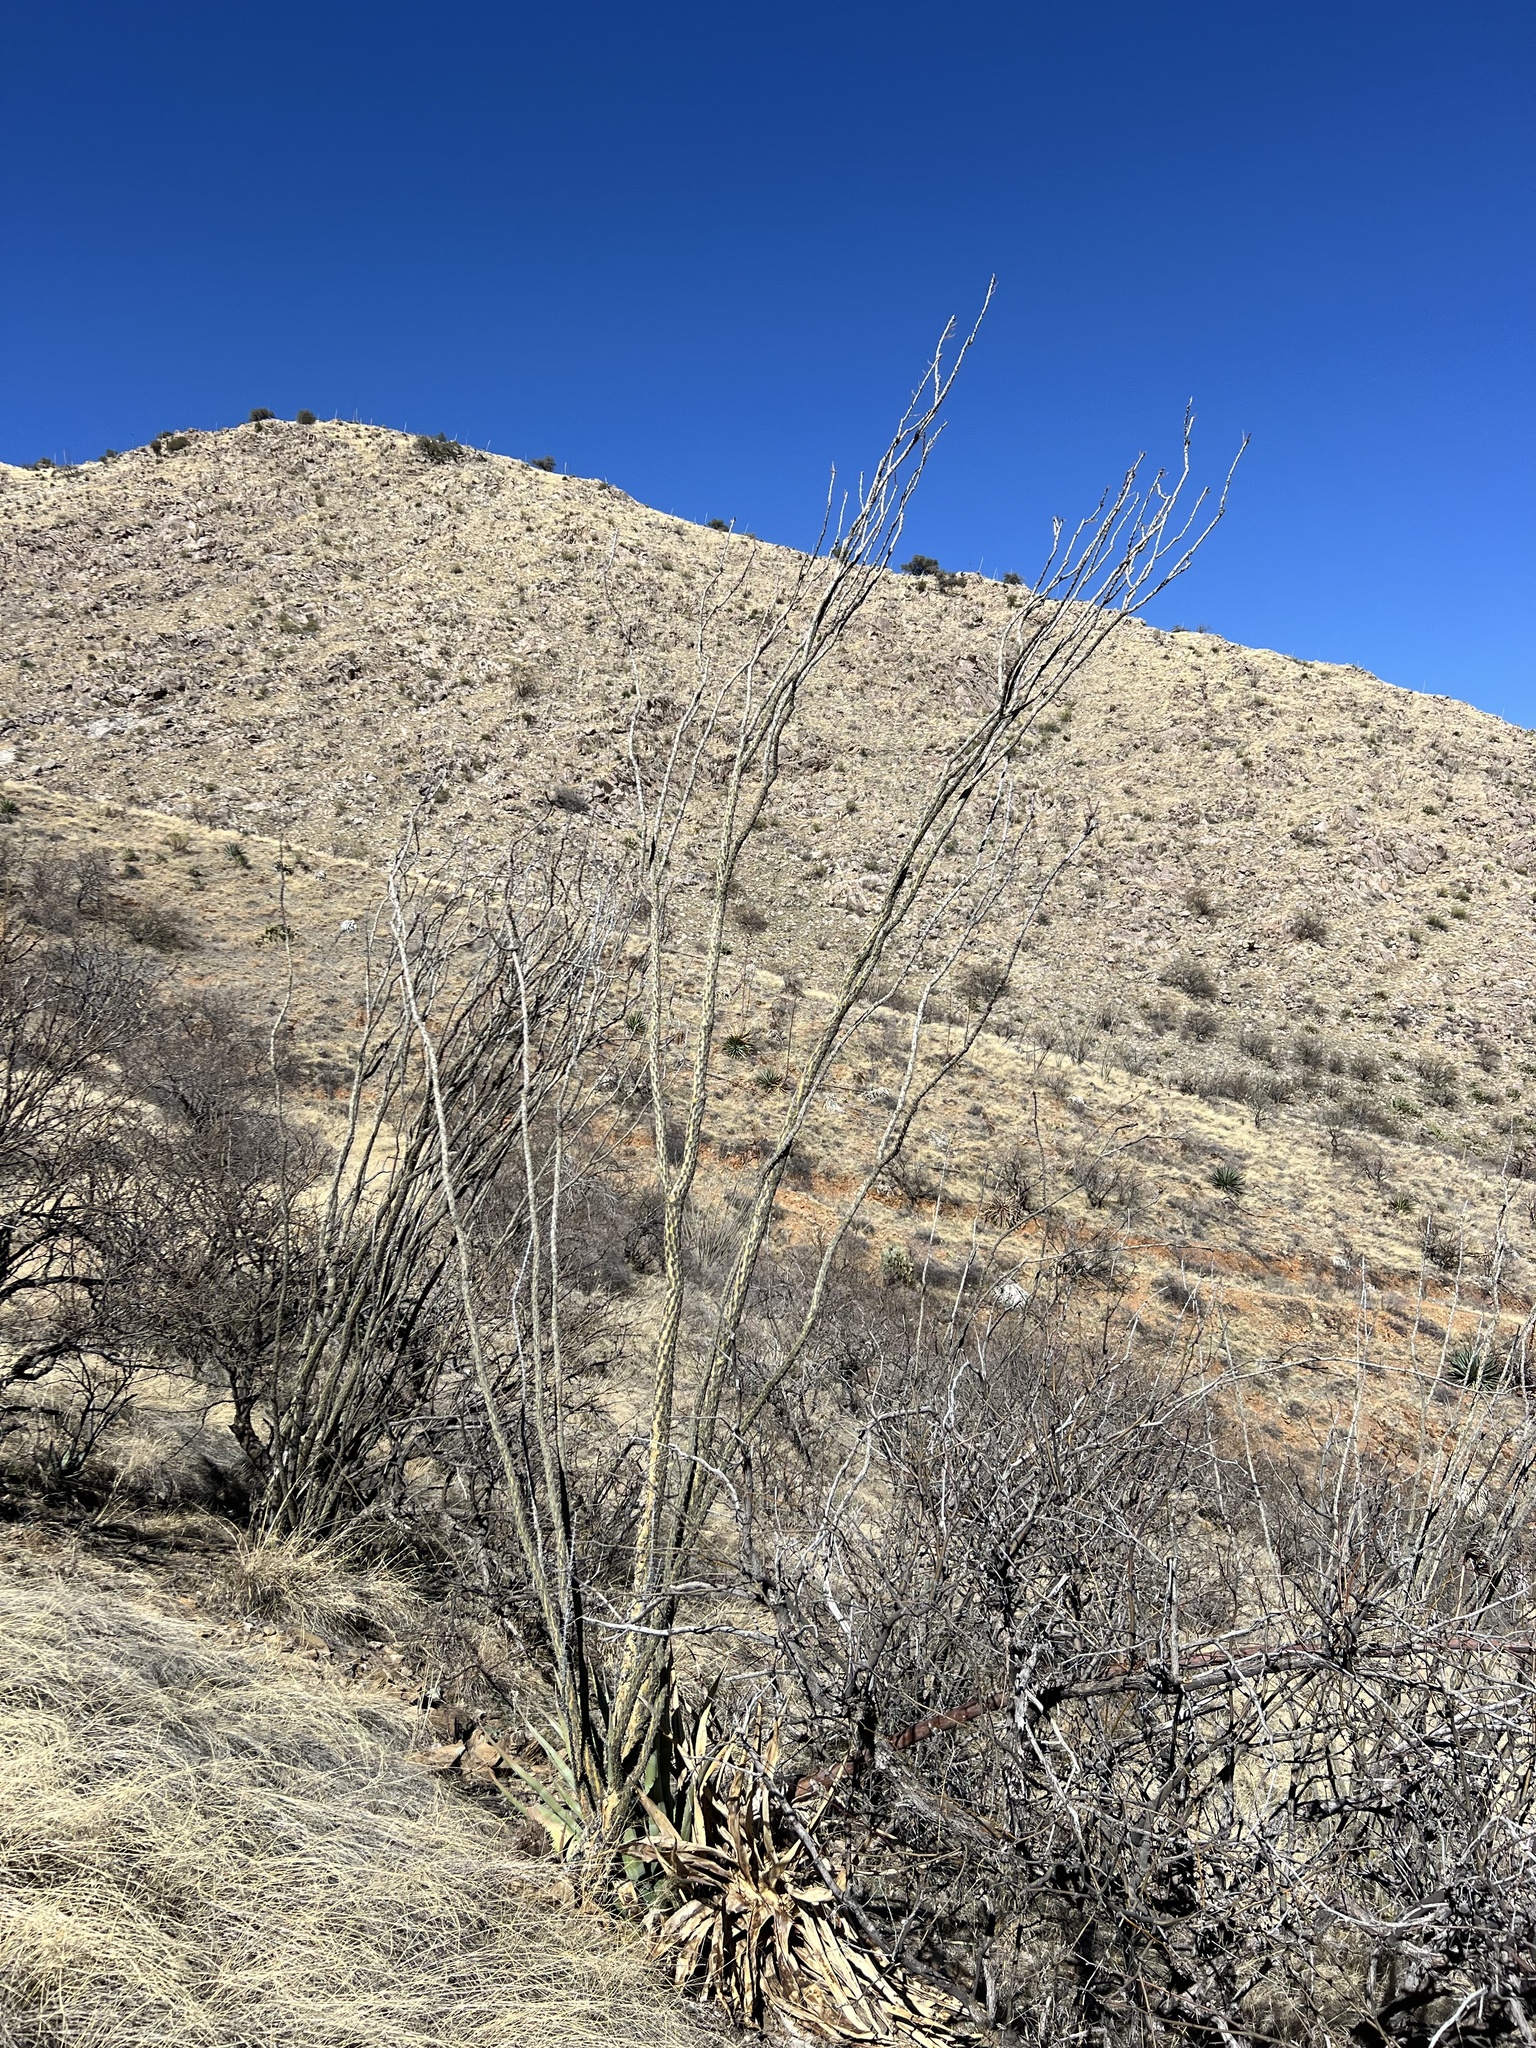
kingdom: Plantae
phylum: Tracheophyta
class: Magnoliopsida
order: Ericales
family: Fouquieriaceae
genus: Fouquieria
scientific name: Fouquieria splendens
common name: Vine-cactus
